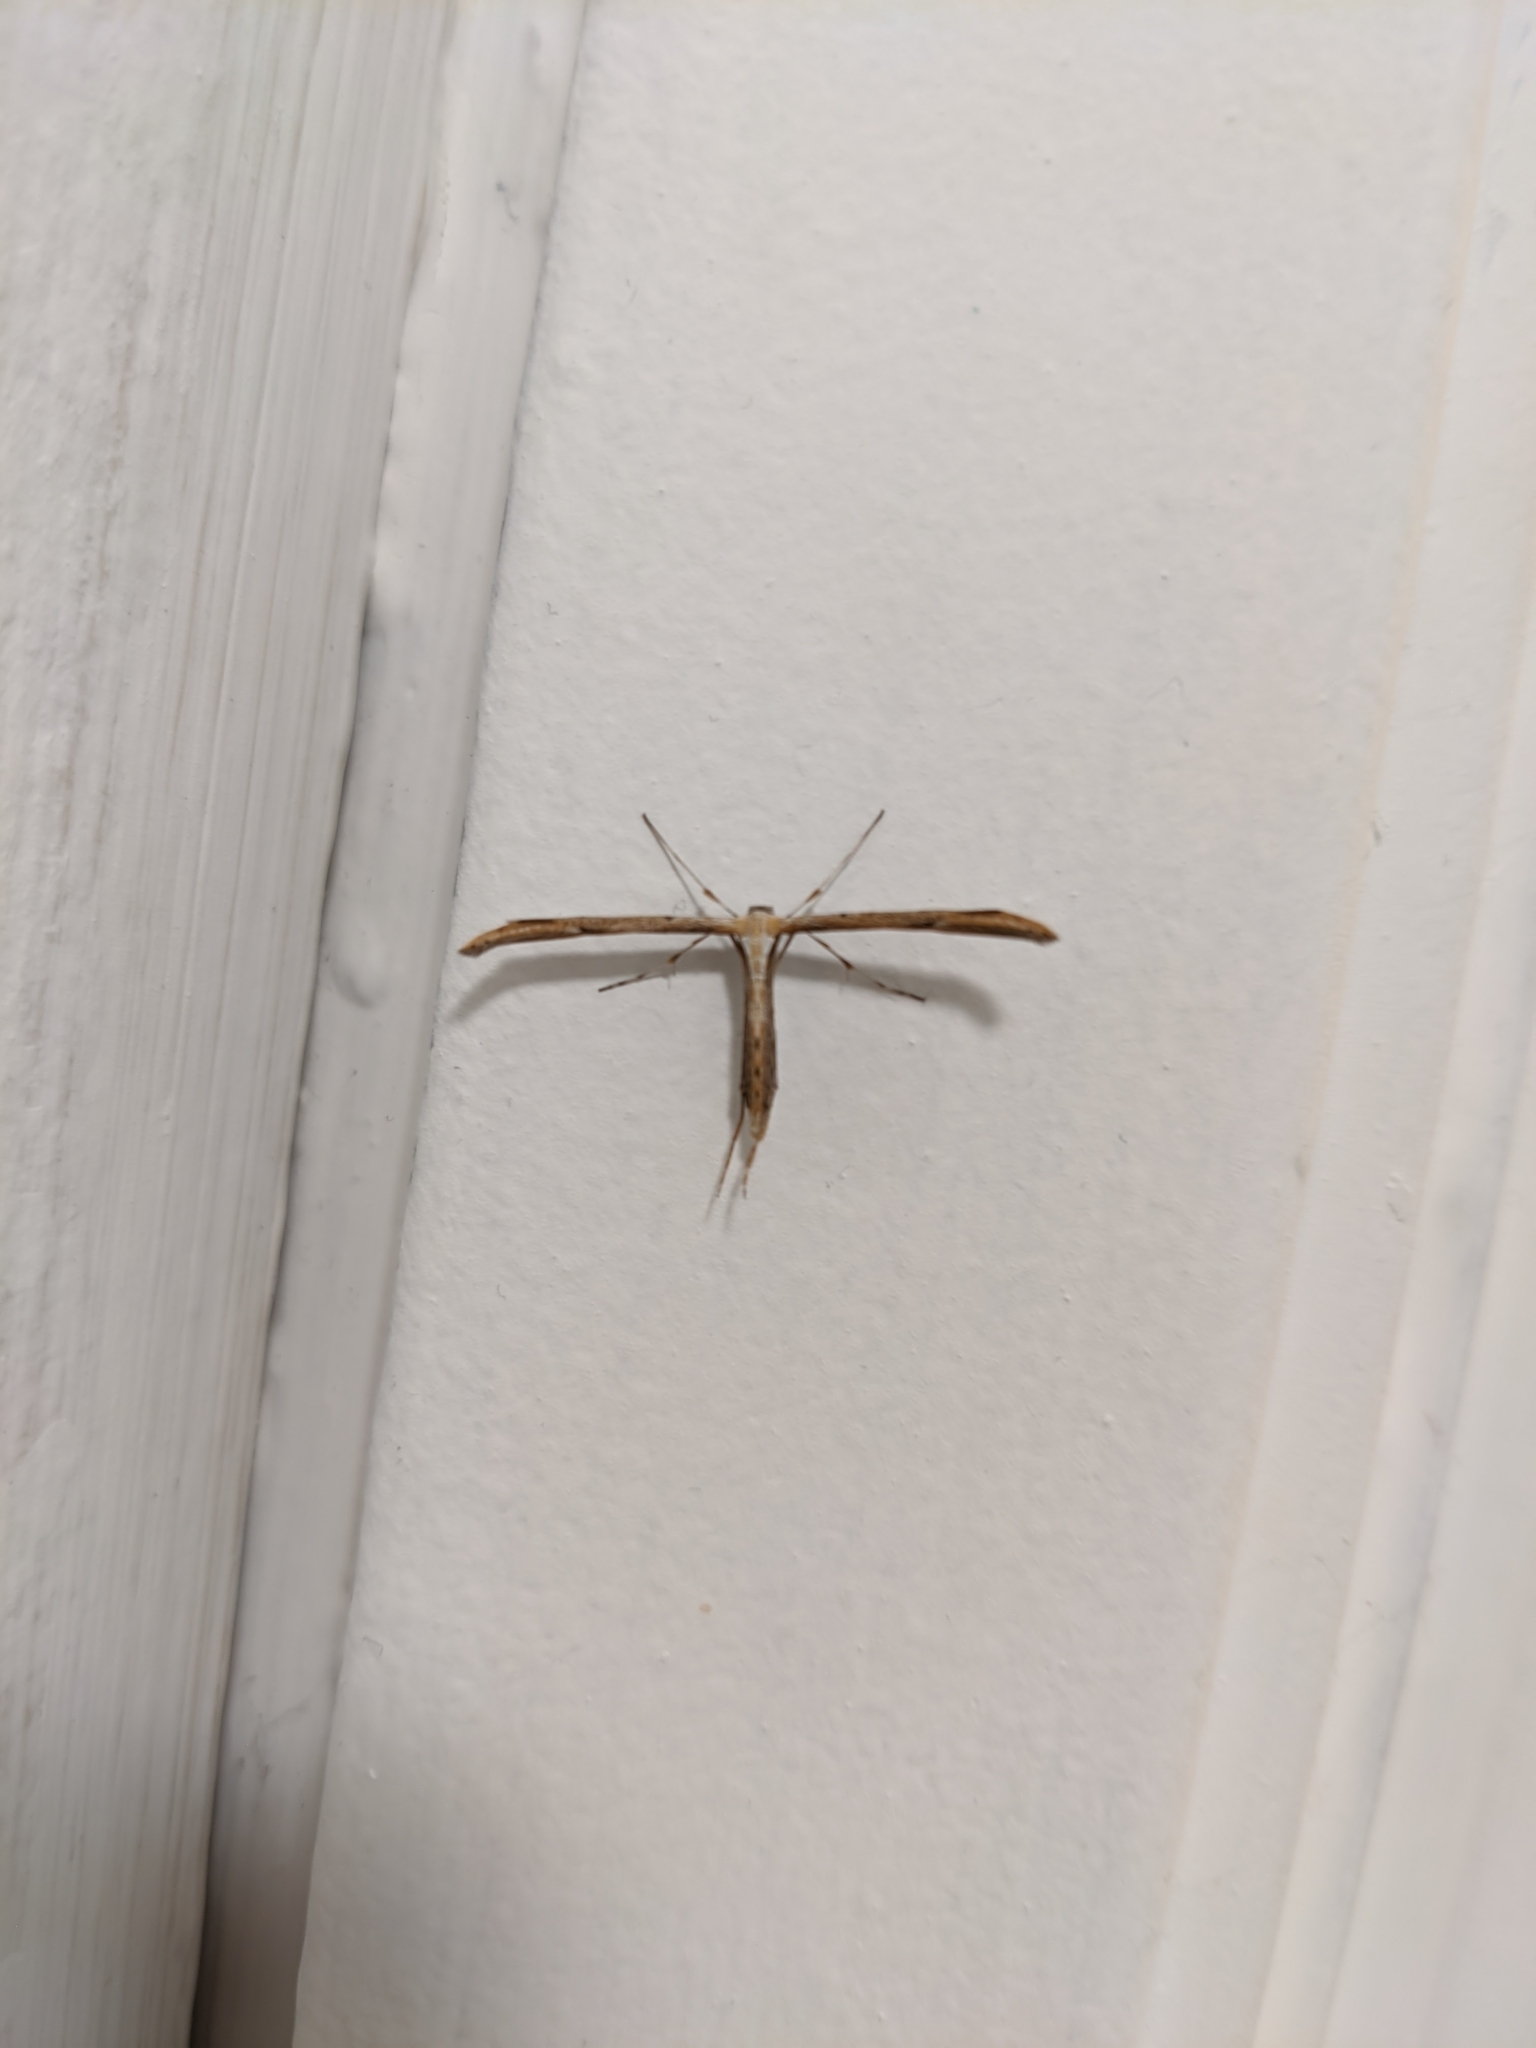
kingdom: Animalia
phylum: Arthropoda
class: Insecta
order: Lepidoptera
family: Pterophoridae
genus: Emmelina
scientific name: Emmelina monodactyla
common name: Common plume
